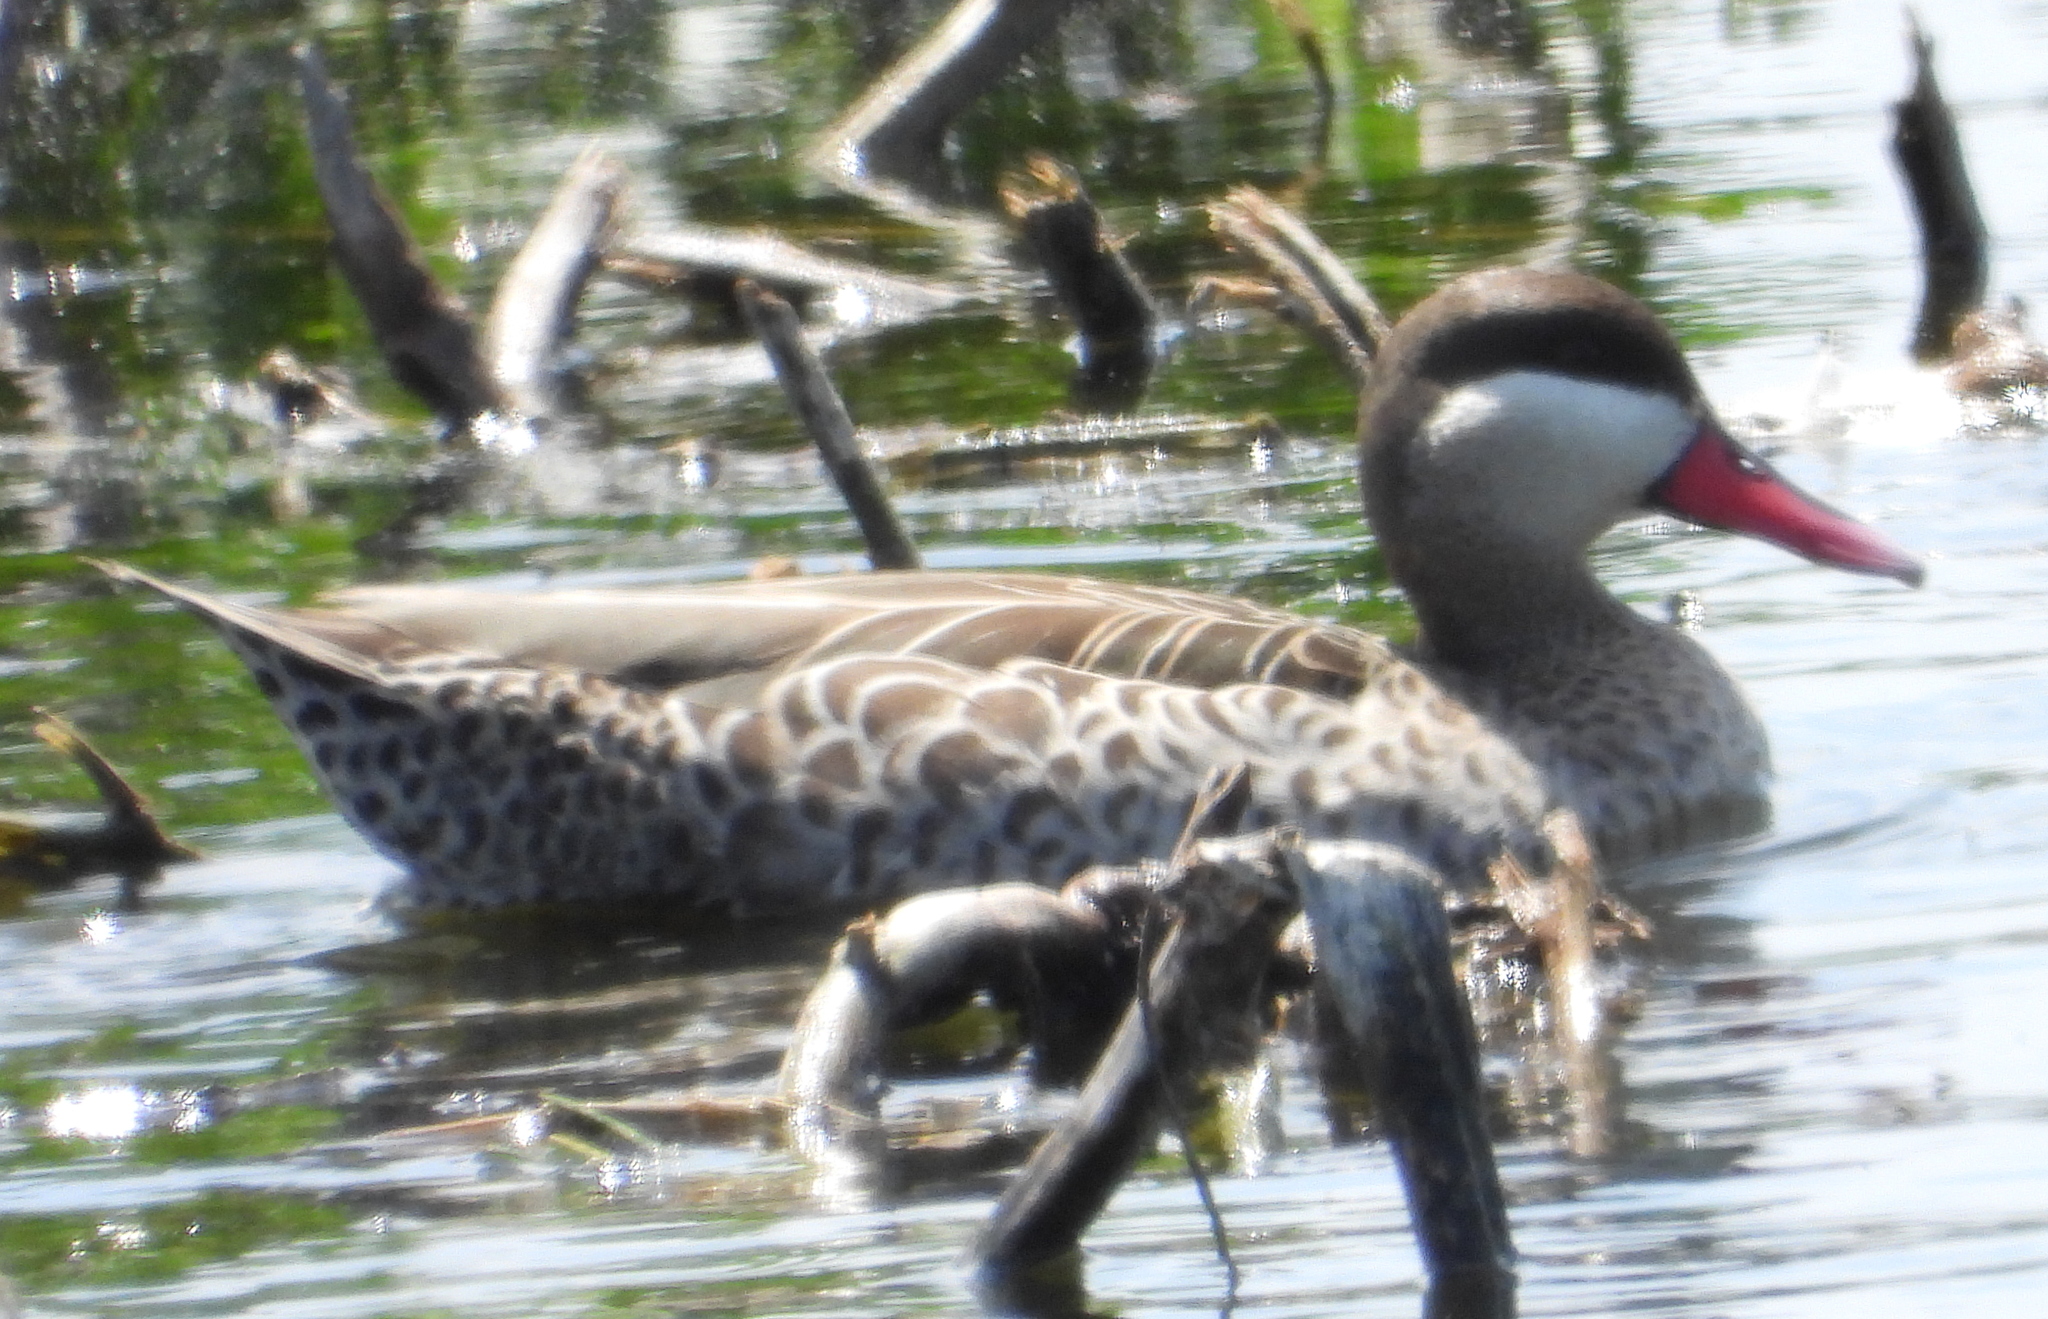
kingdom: Animalia
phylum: Chordata
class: Aves
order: Anseriformes
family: Anatidae
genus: Anas
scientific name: Anas erythrorhyncha
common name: Red-billed teal
